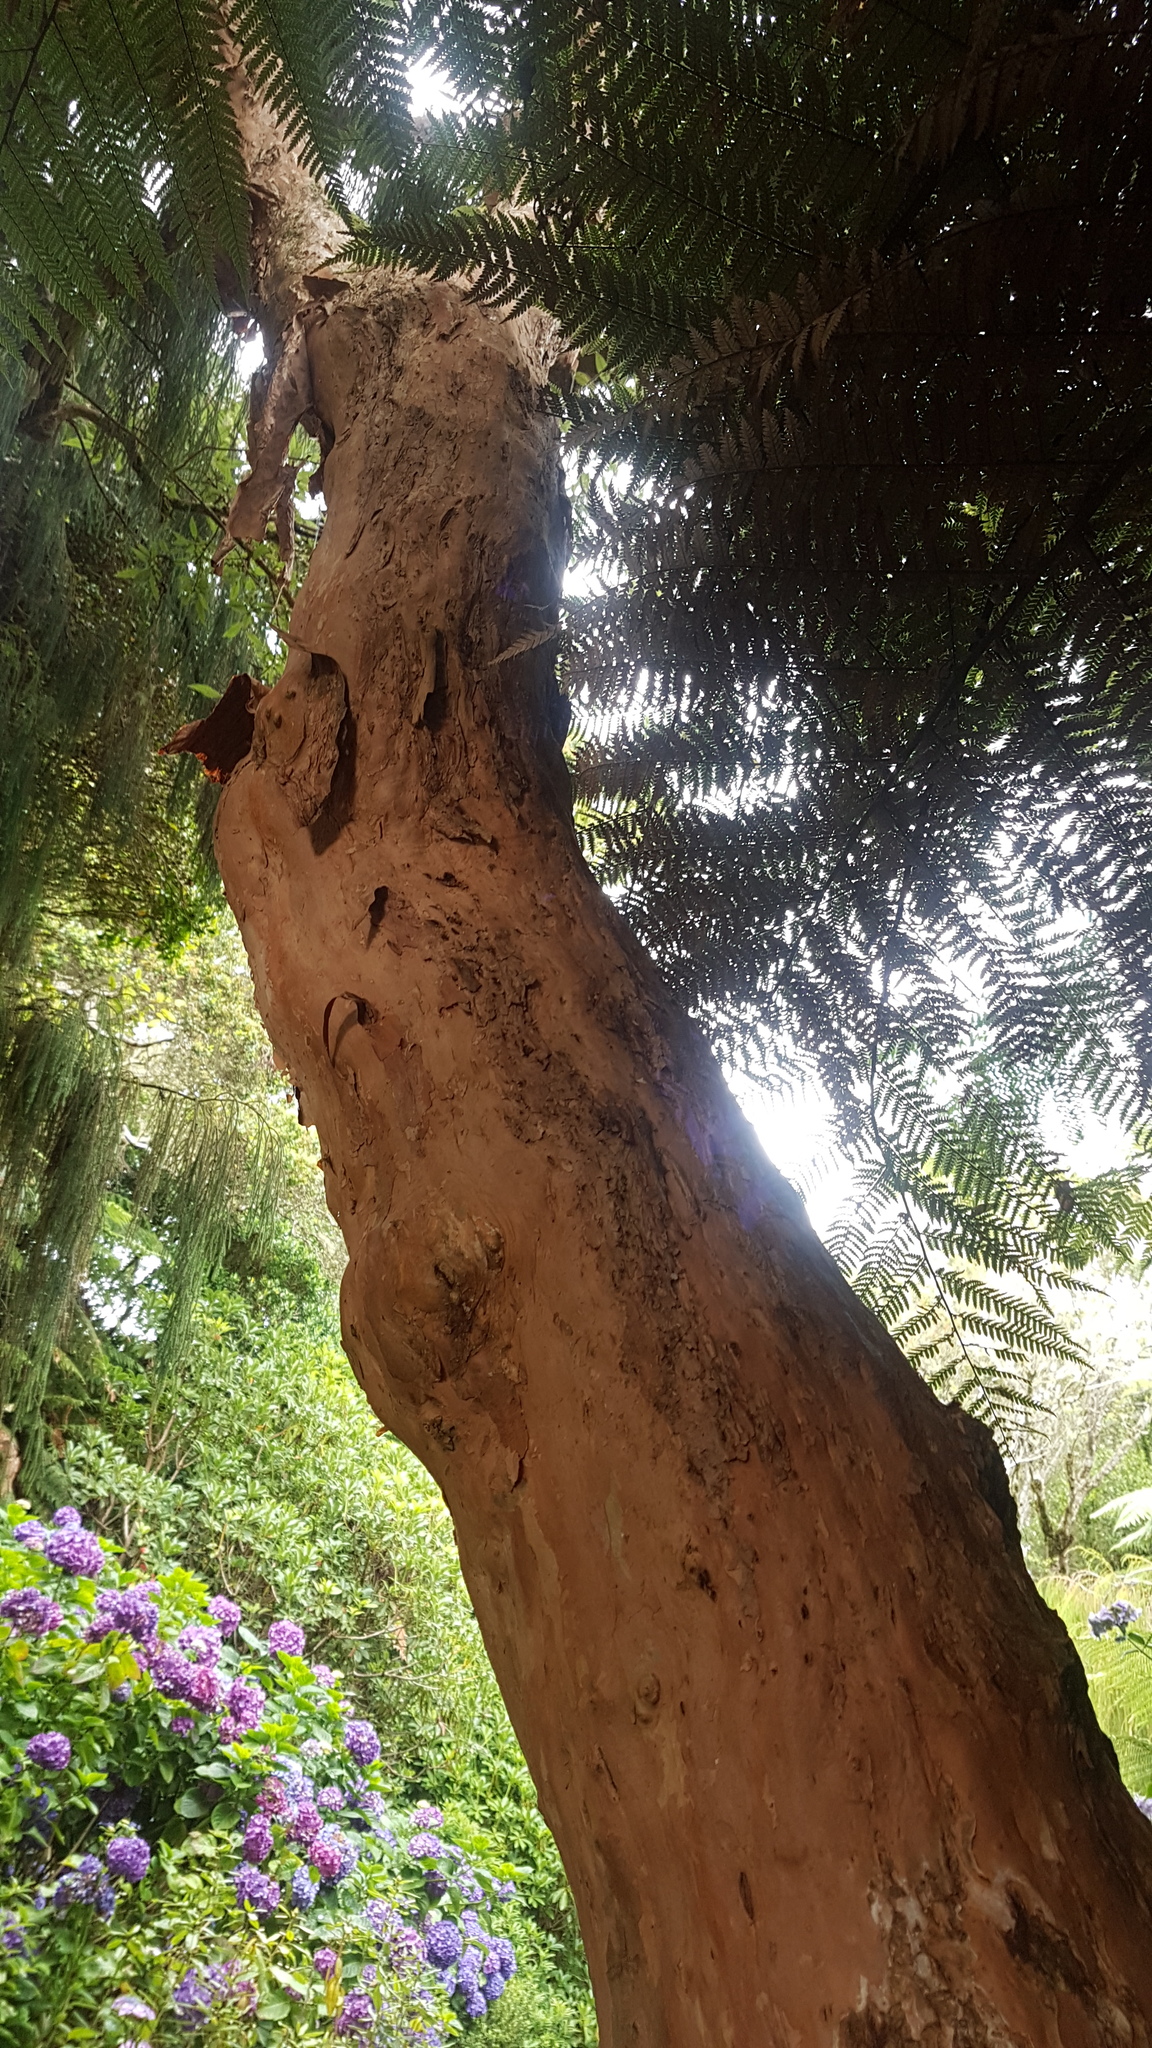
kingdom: Plantae
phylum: Tracheophyta
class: Magnoliopsida
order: Myrtales
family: Onagraceae
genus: Fuchsia
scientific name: Fuchsia excorticata
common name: Tree fuchsia
